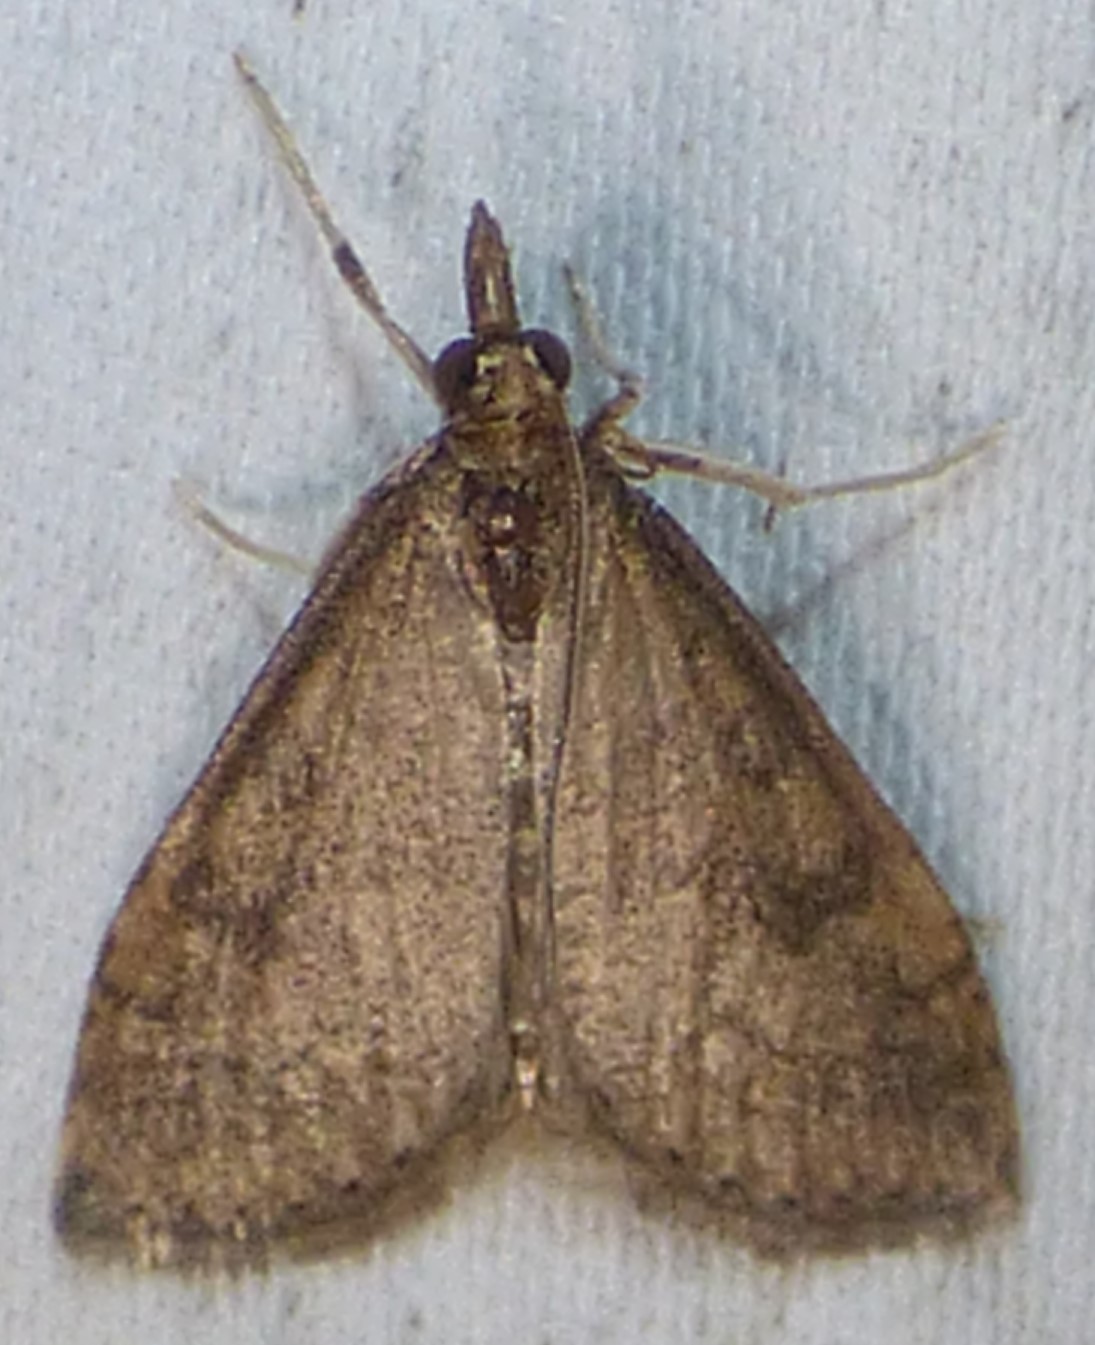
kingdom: Animalia
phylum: Arthropoda
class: Insecta
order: Lepidoptera
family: Crambidae
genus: Udea
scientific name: Udea rubigalis
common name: Celery leaftier moth
